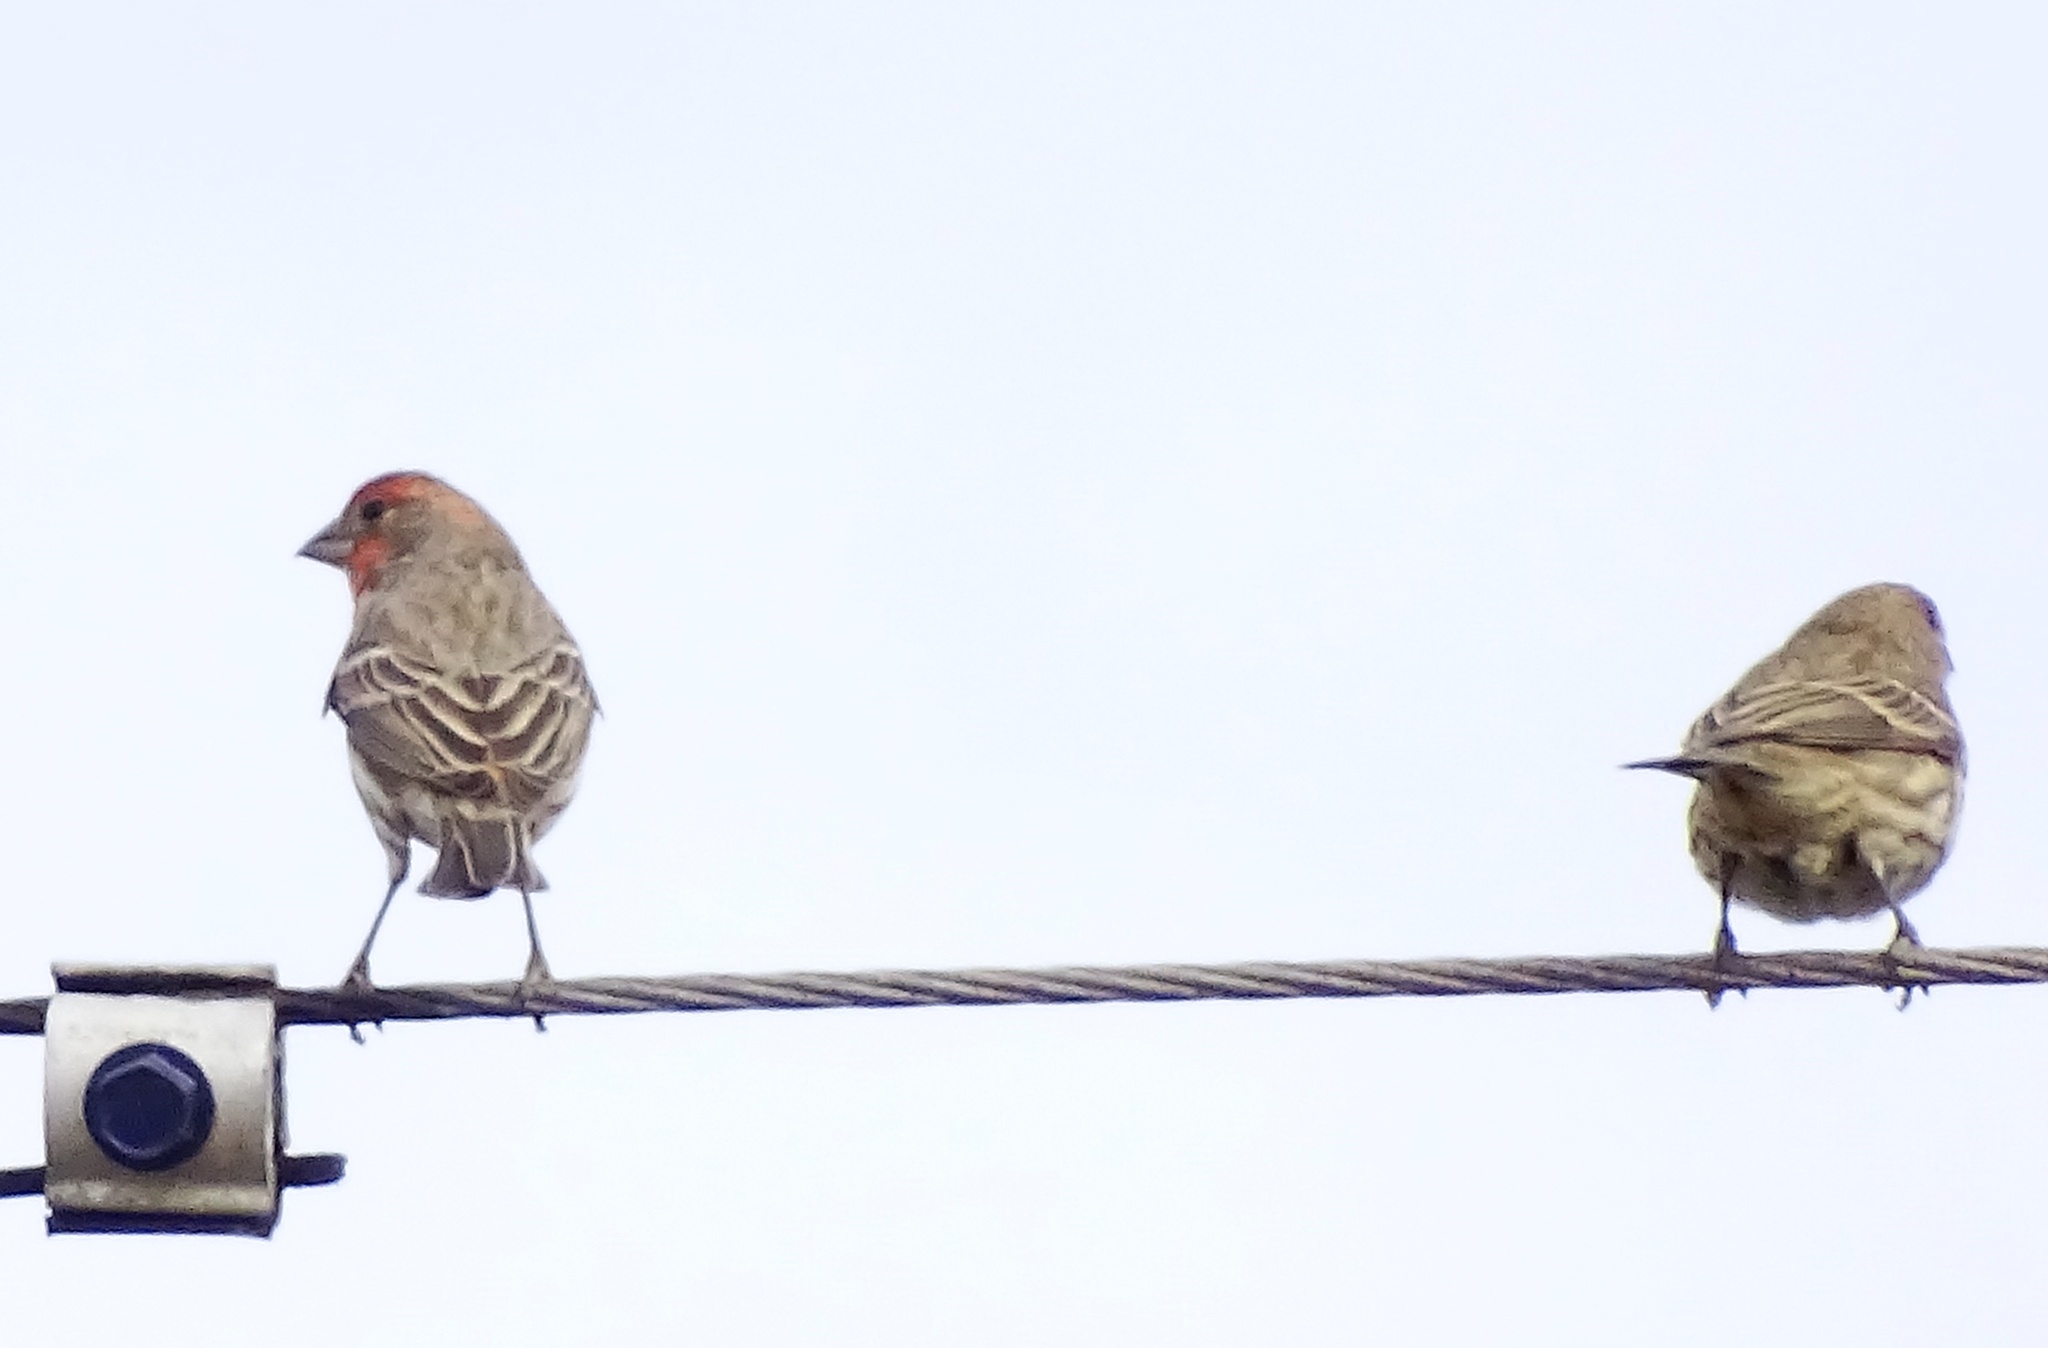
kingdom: Animalia
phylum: Chordata
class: Aves
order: Passeriformes
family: Fringillidae
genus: Haemorhous
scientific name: Haemorhous mexicanus
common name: House finch
